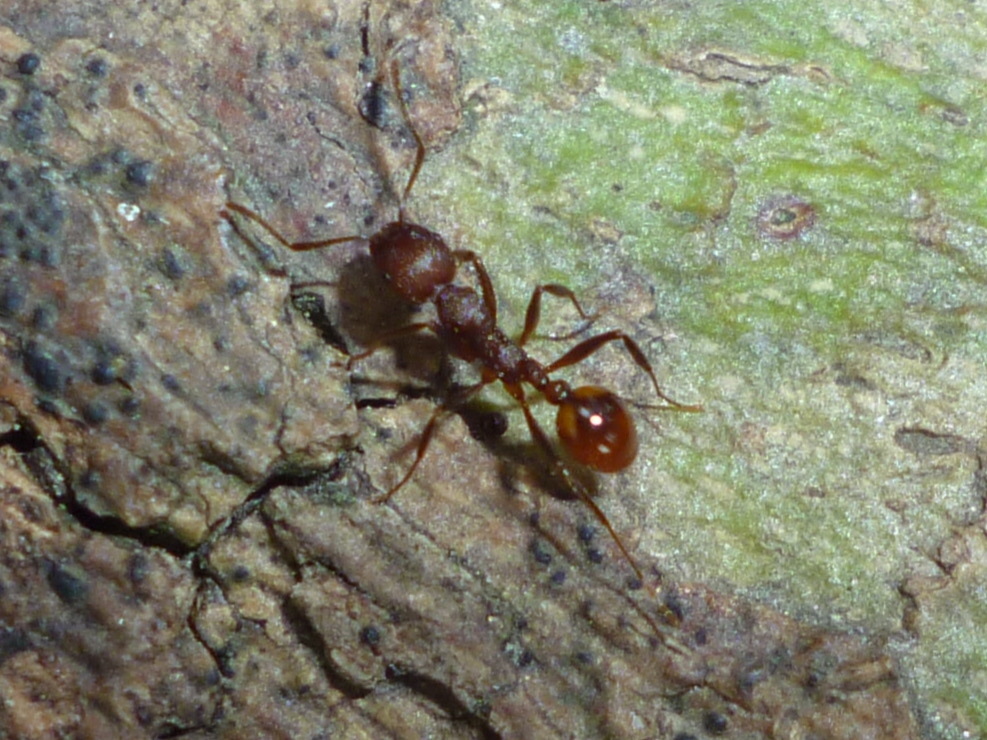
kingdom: Animalia
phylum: Arthropoda
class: Insecta
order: Hymenoptera
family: Formicidae
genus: Aphaenogaster
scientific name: Aphaenogaster tennesseensis
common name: Tennessee thread-waisted ant
